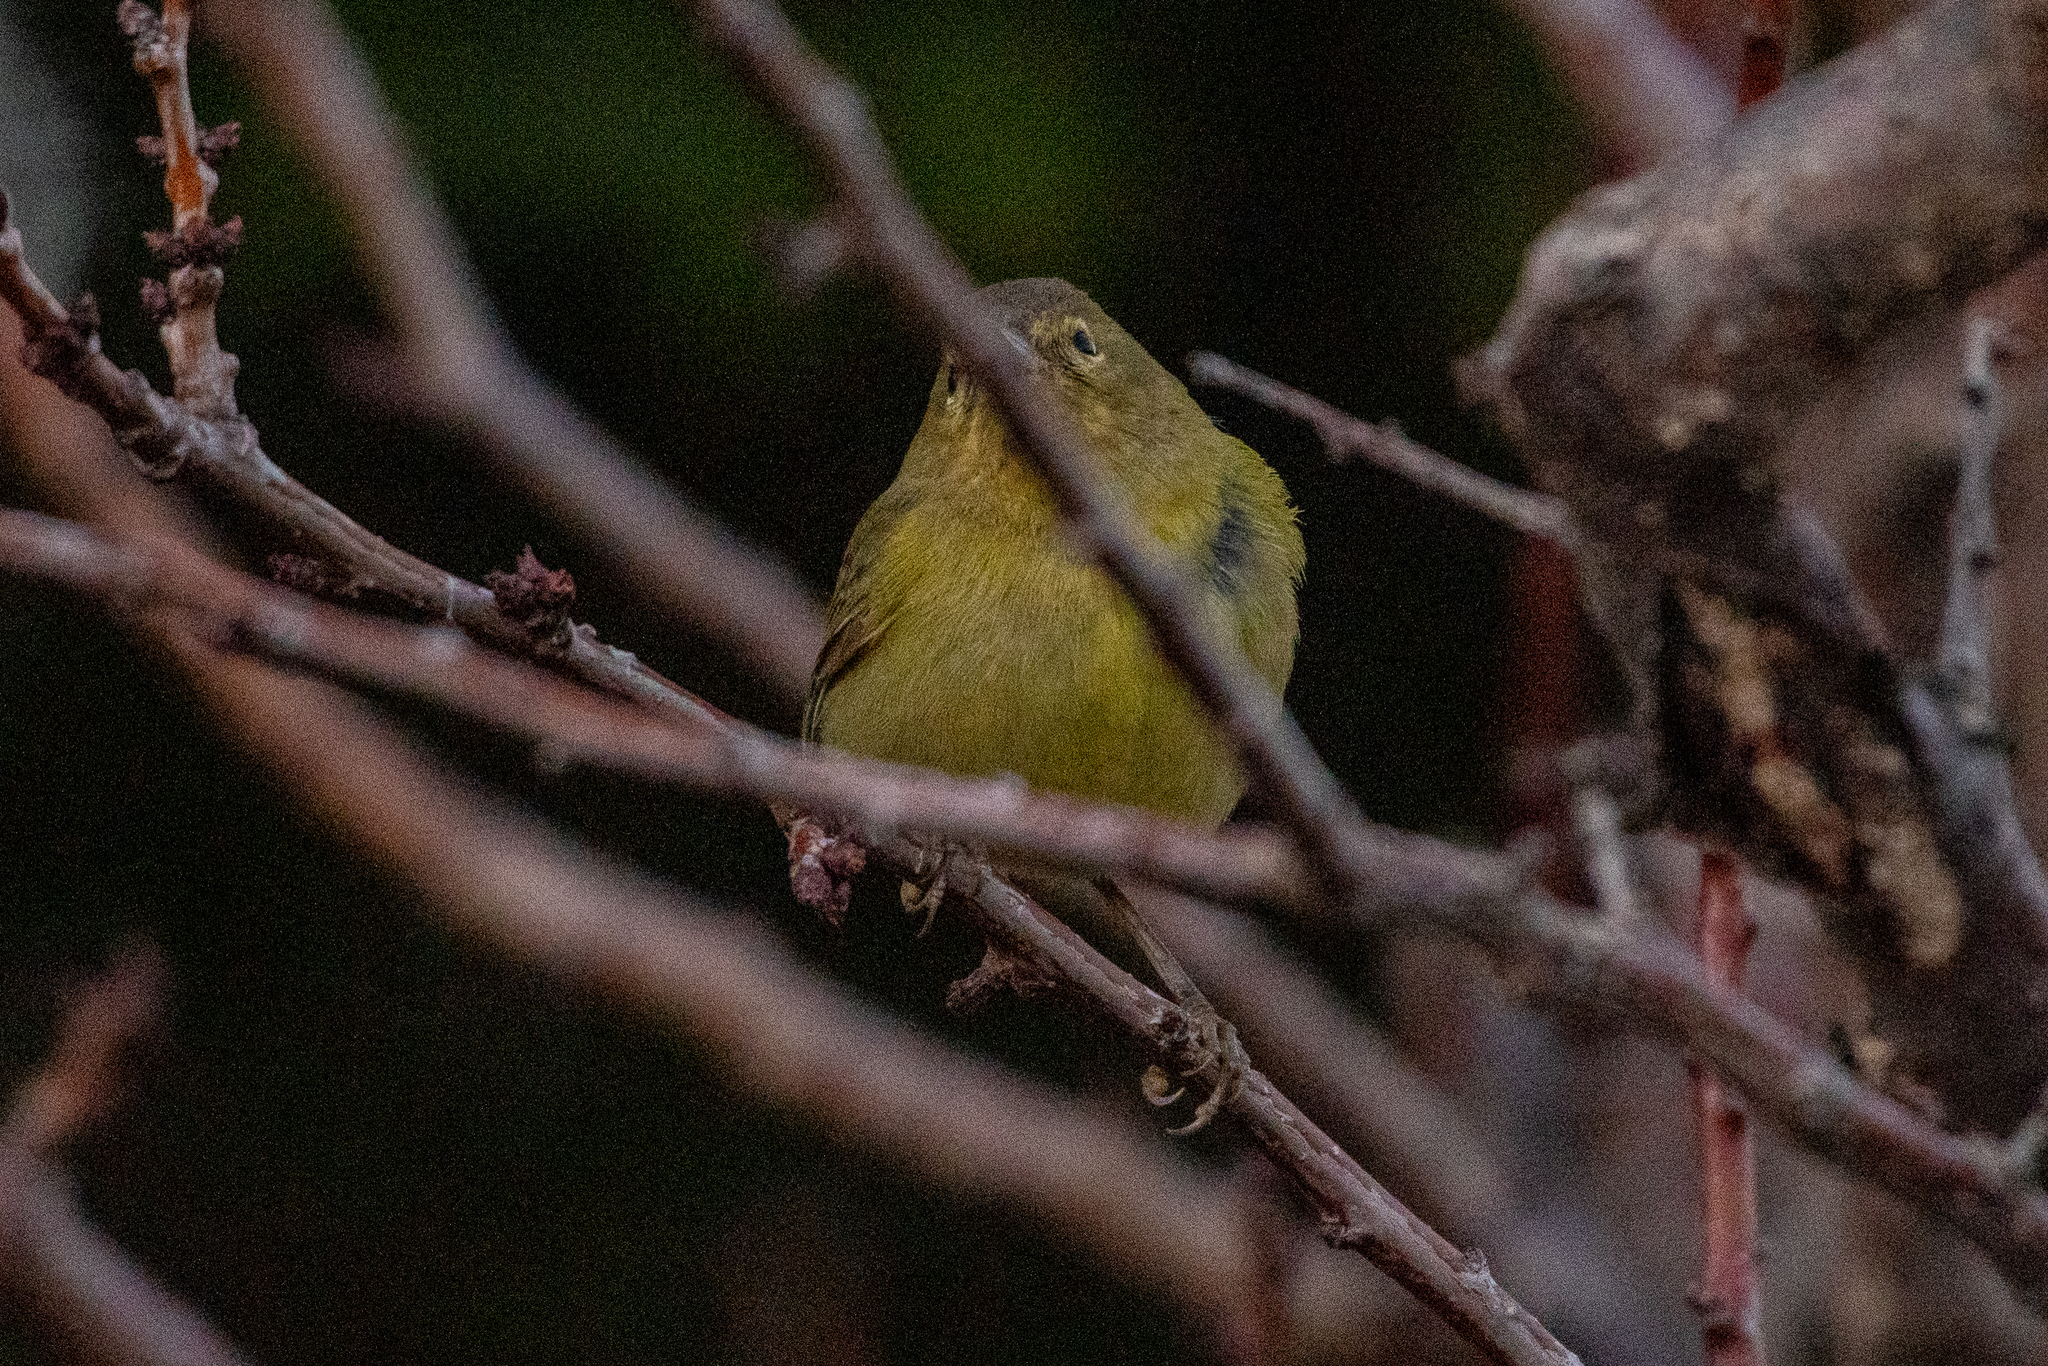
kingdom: Animalia
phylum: Chordata
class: Aves
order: Passeriformes
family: Parulidae
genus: Leiothlypis
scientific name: Leiothlypis celata
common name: Orange-crowned warbler
